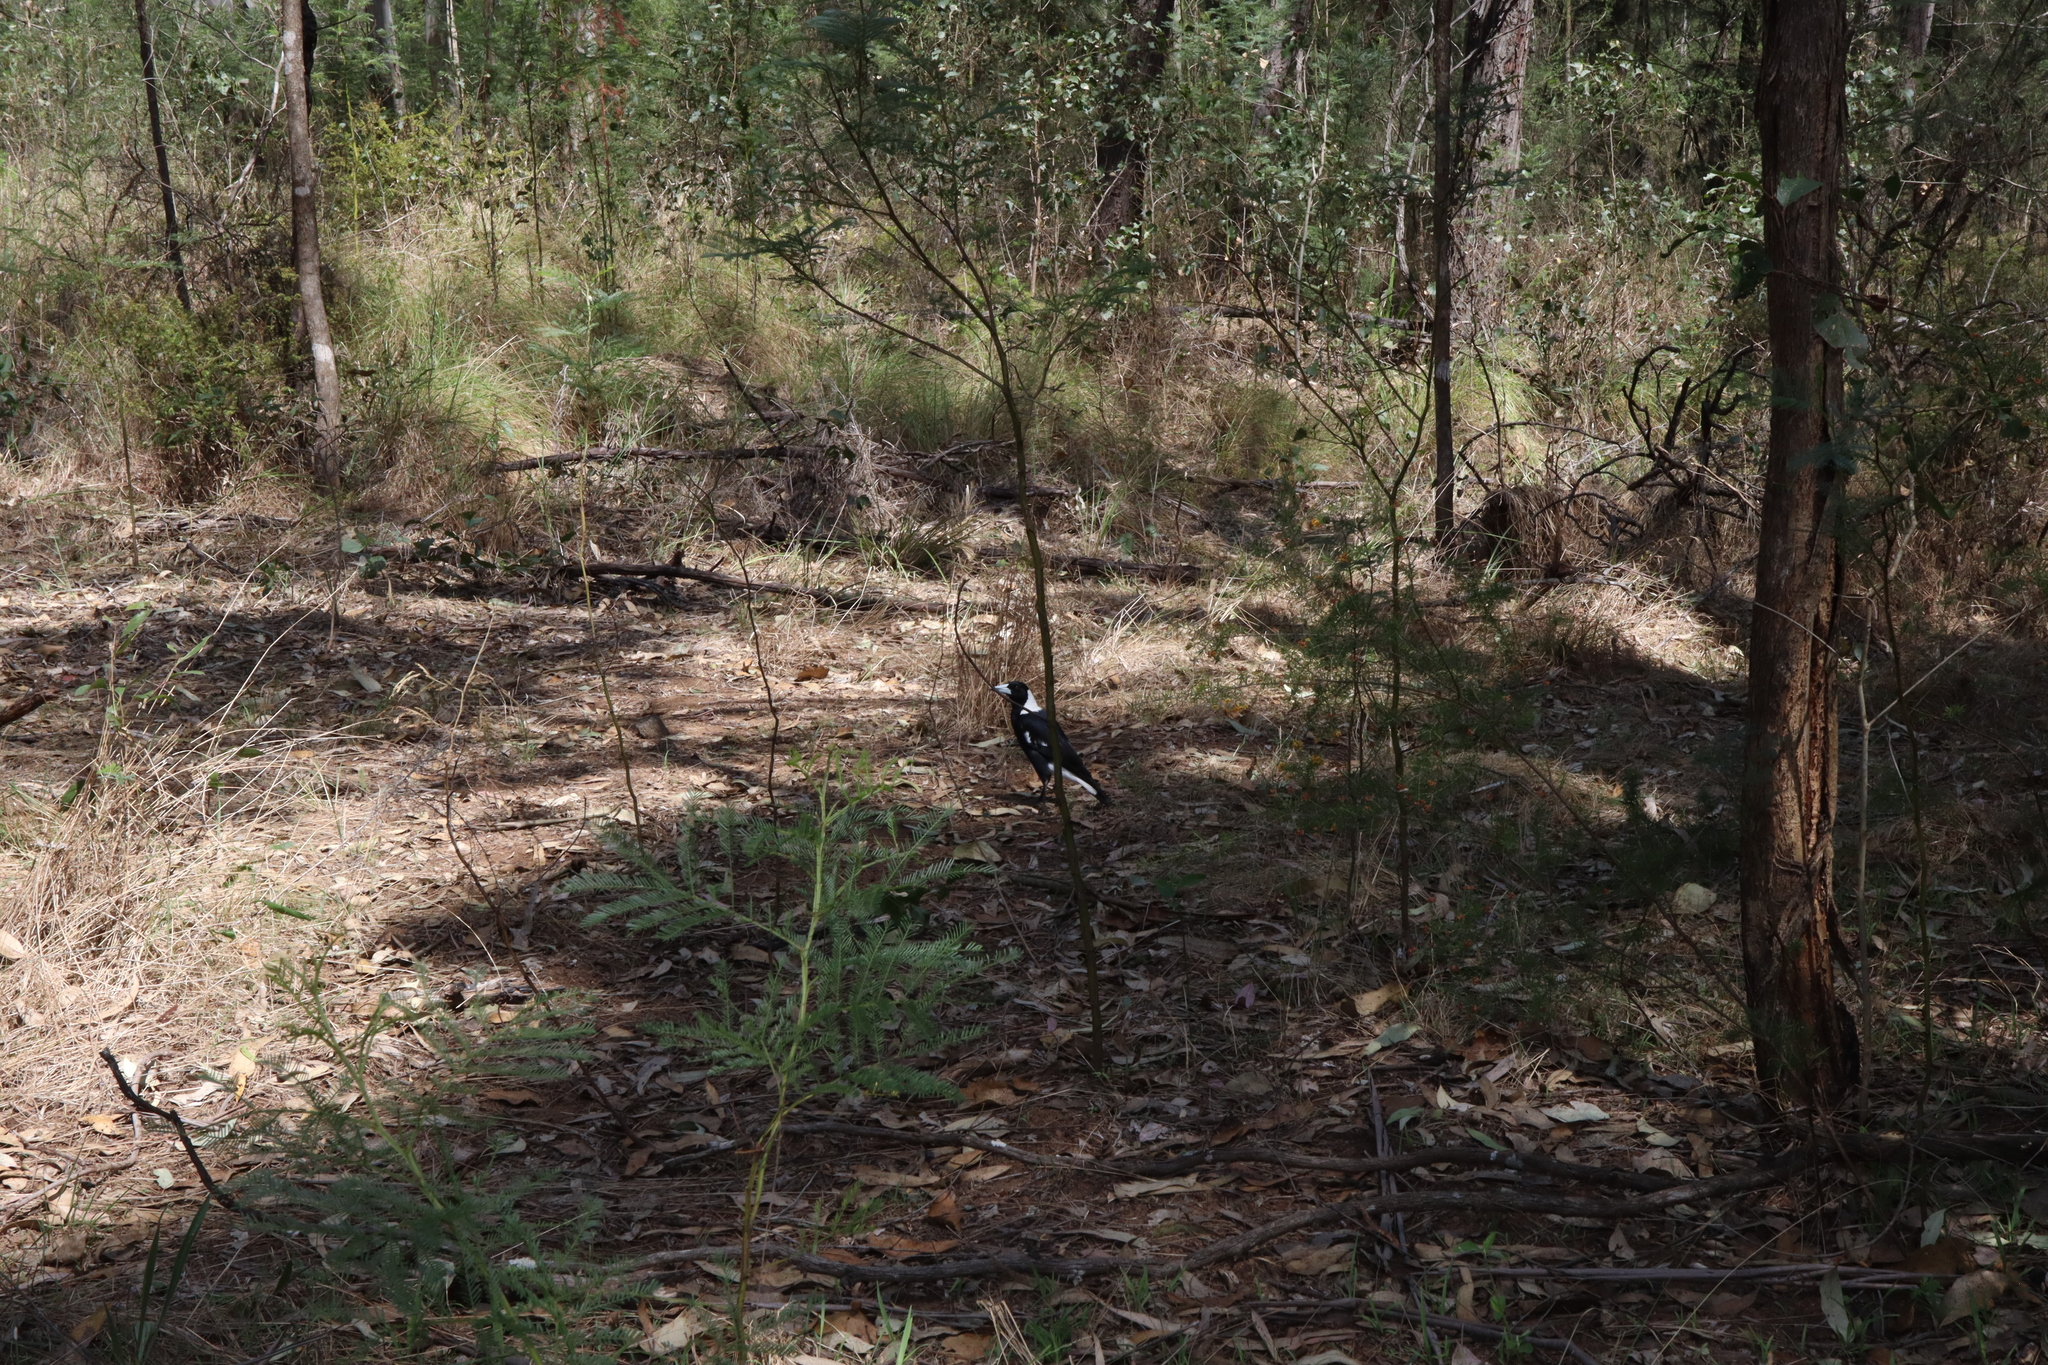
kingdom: Animalia
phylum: Chordata
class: Aves
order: Passeriformes
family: Cracticidae
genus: Gymnorhina
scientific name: Gymnorhina tibicen
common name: Australian magpie
